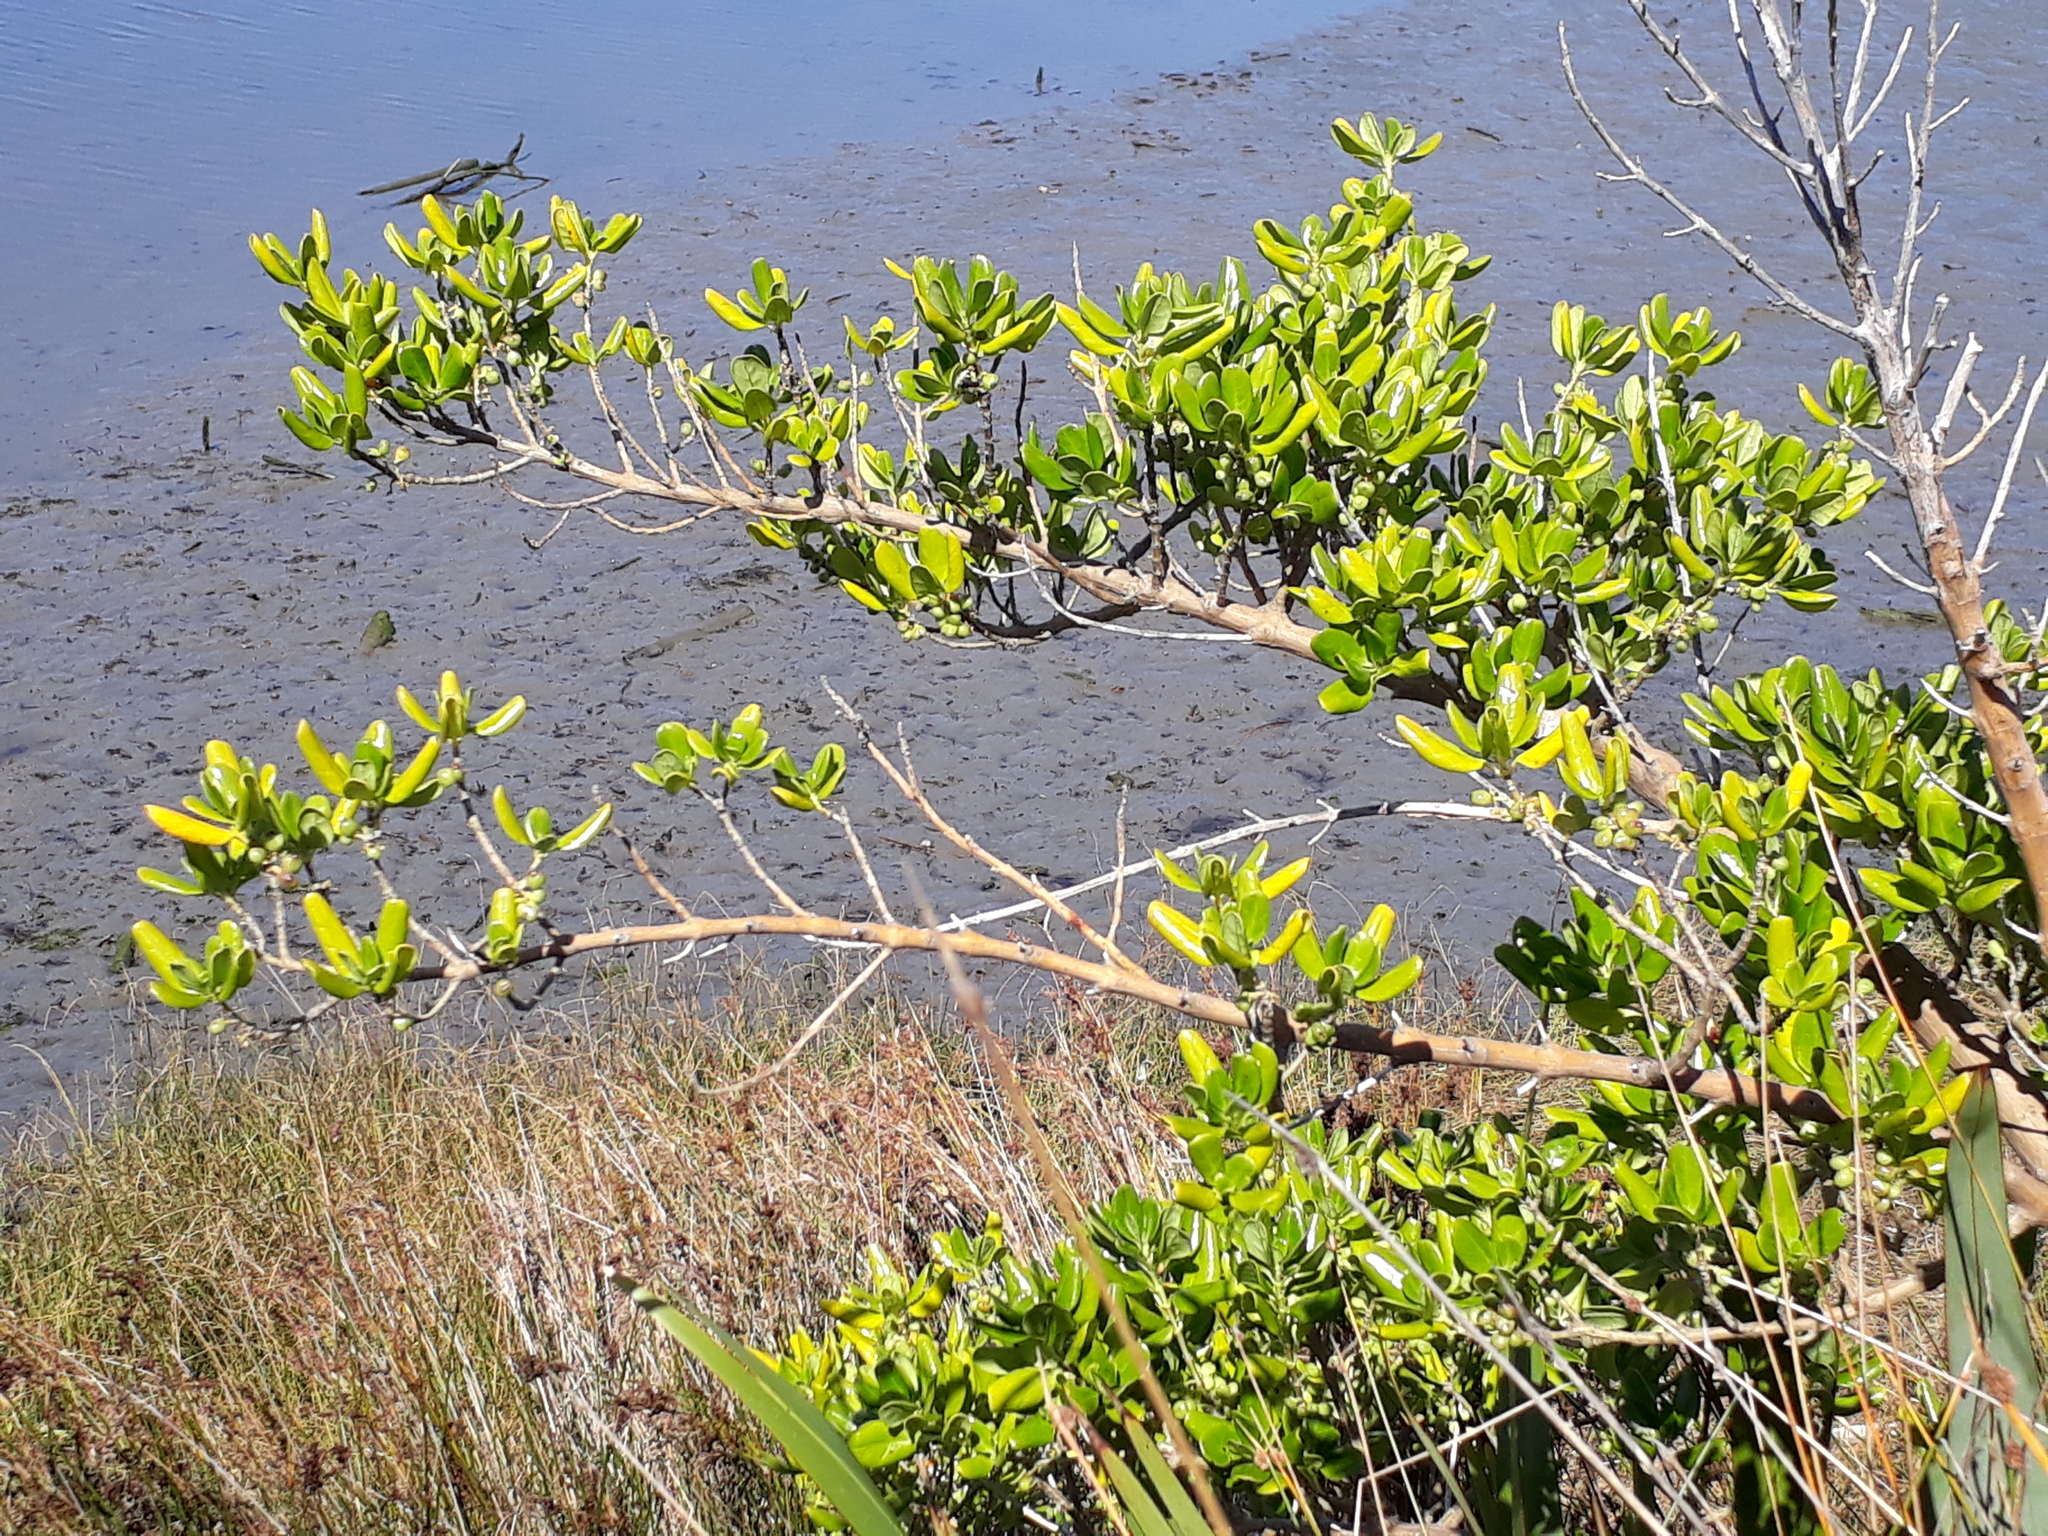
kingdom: Plantae
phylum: Tracheophyta
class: Magnoliopsida
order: Gentianales
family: Rubiaceae
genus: Coprosma
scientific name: Coprosma repens
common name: Tree bedstraw
